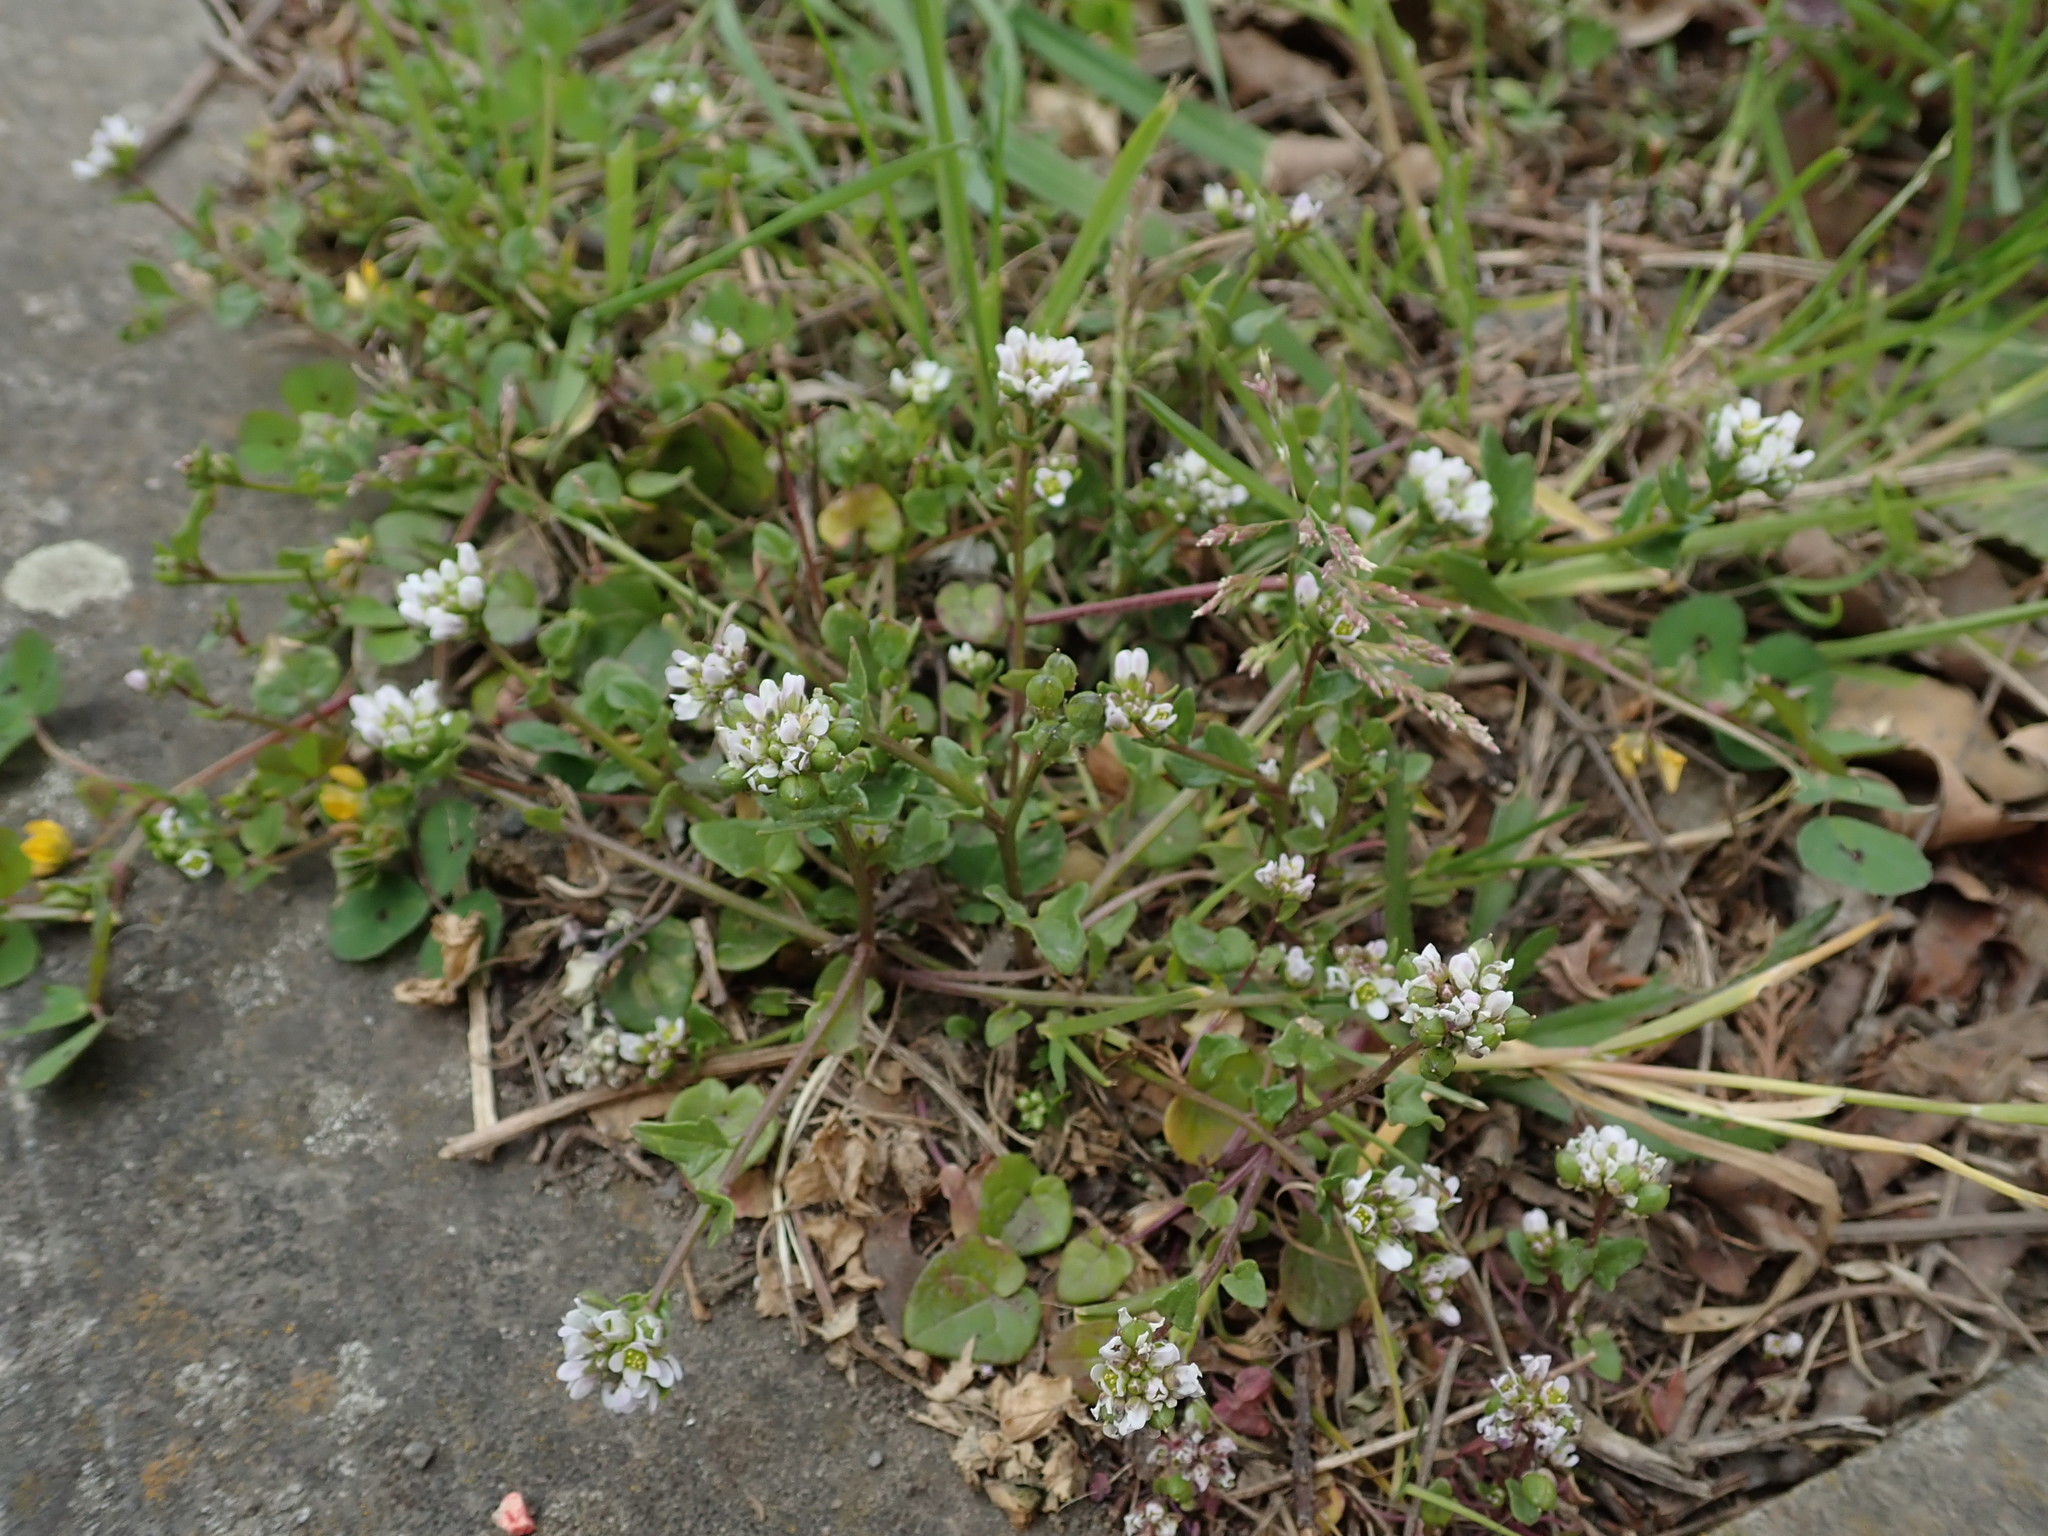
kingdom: Plantae
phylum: Tracheophyta
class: Magnoliopsida
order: Brassicales
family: Brassicaceae
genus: Cochlearia
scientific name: Cochlearia danica
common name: Early scurvygrass
